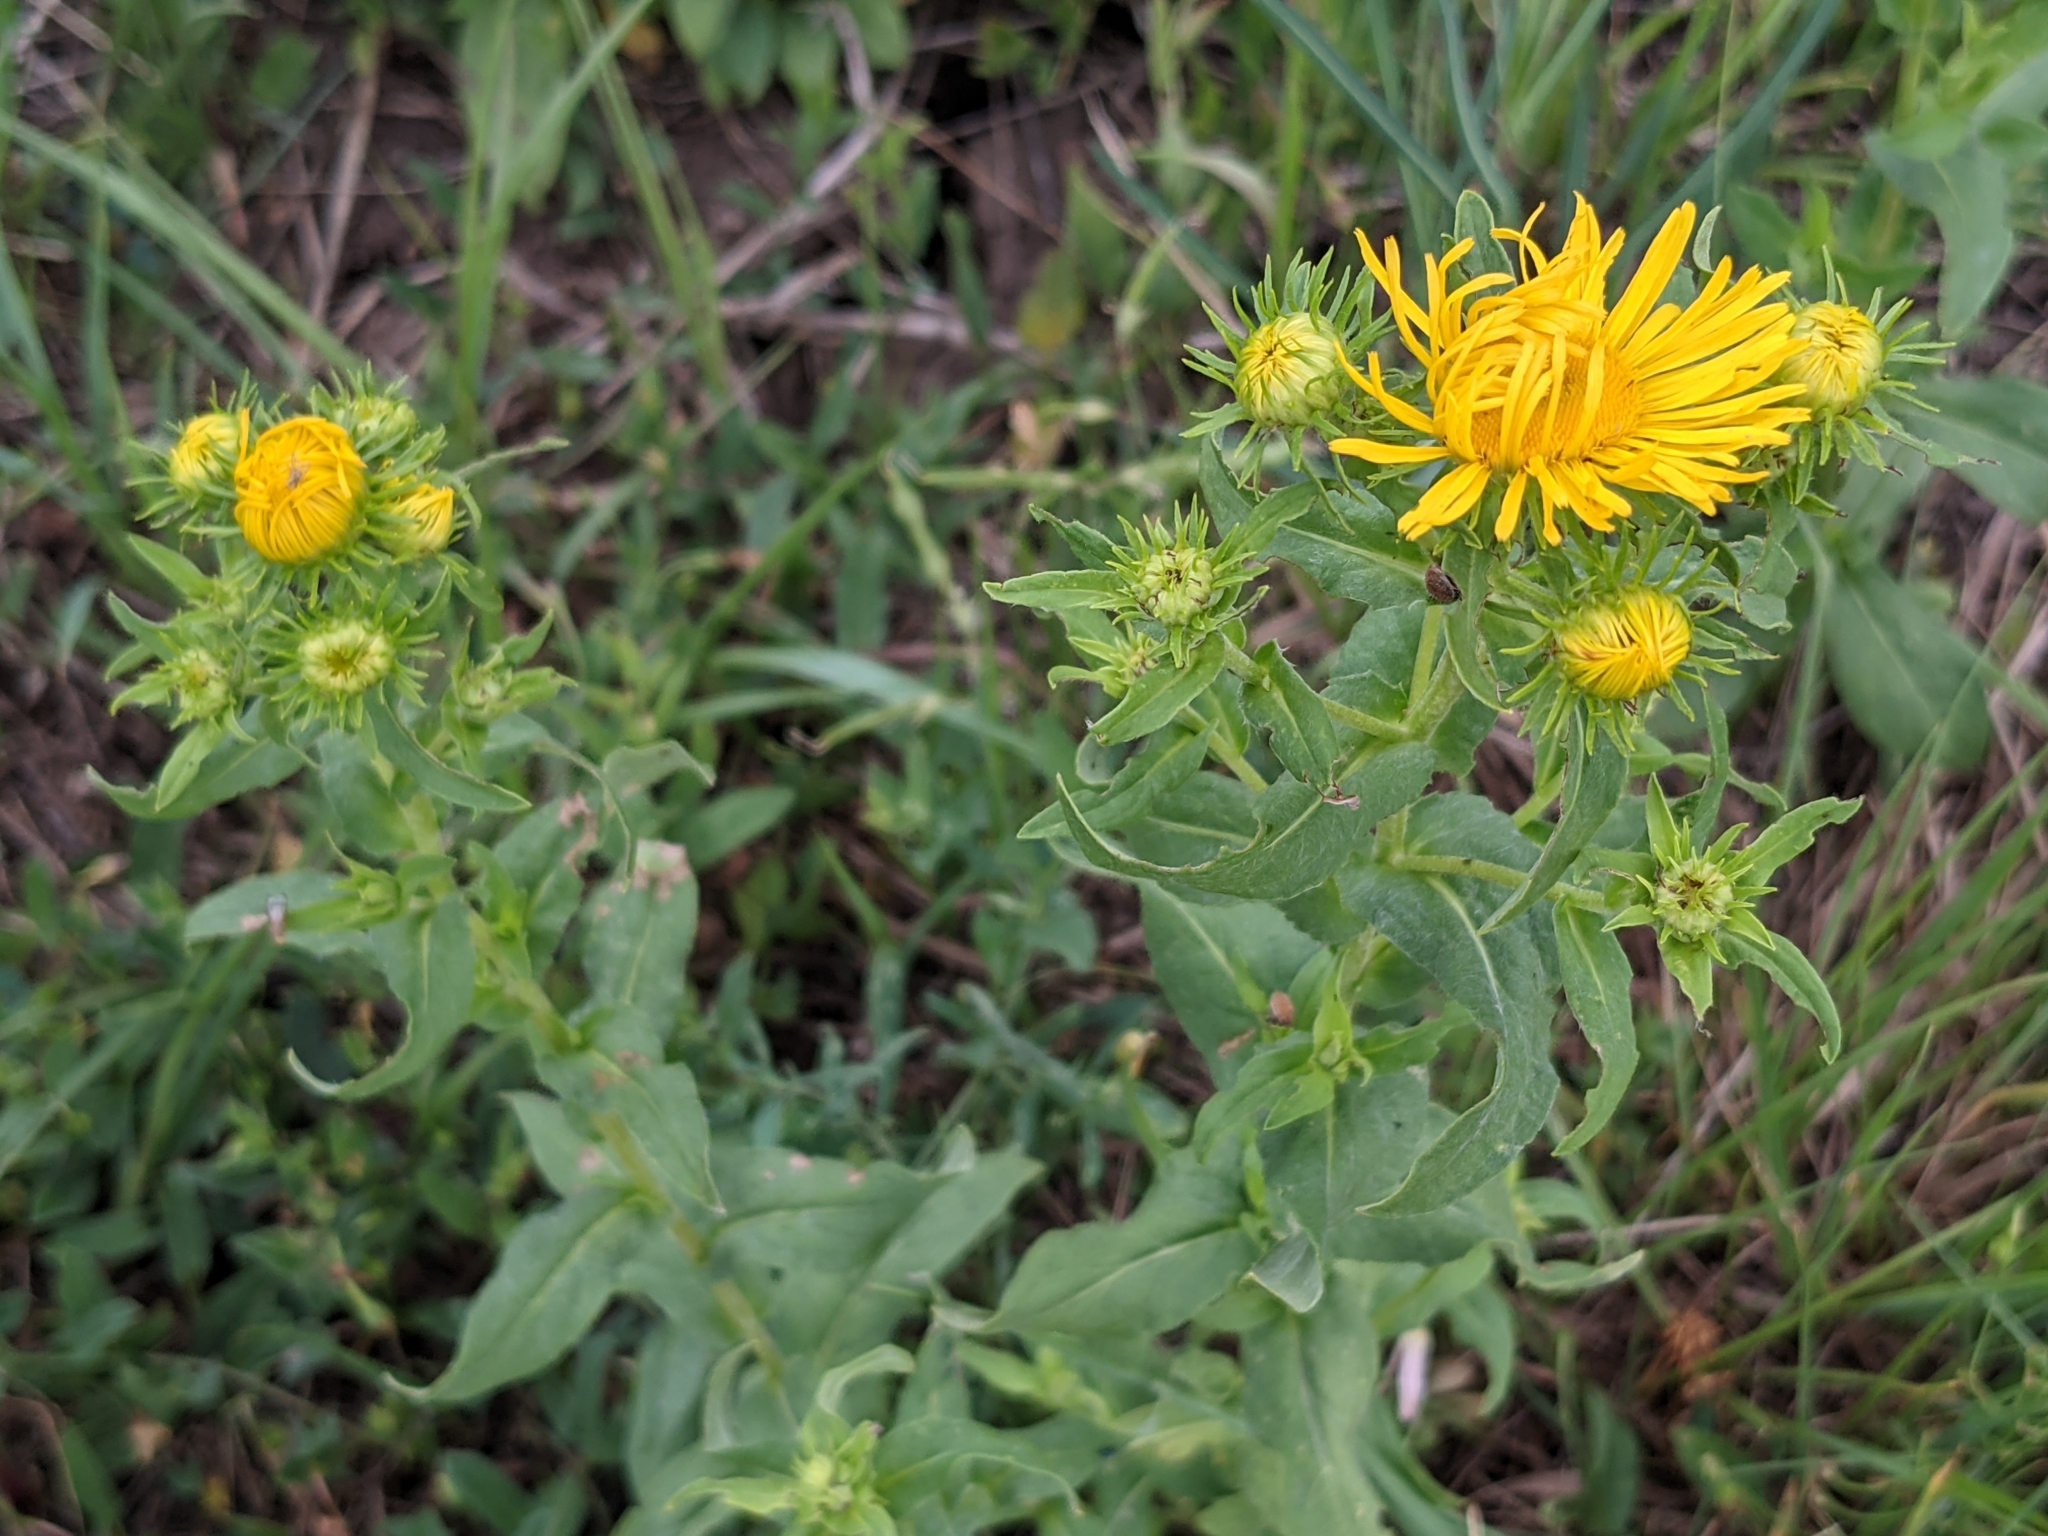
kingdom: Plantae
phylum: Tracheophyta
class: Magnoliopsida
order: Asterales
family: Asteraceae
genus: Pentanema
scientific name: Pentanema britannicum
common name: British elecampane
